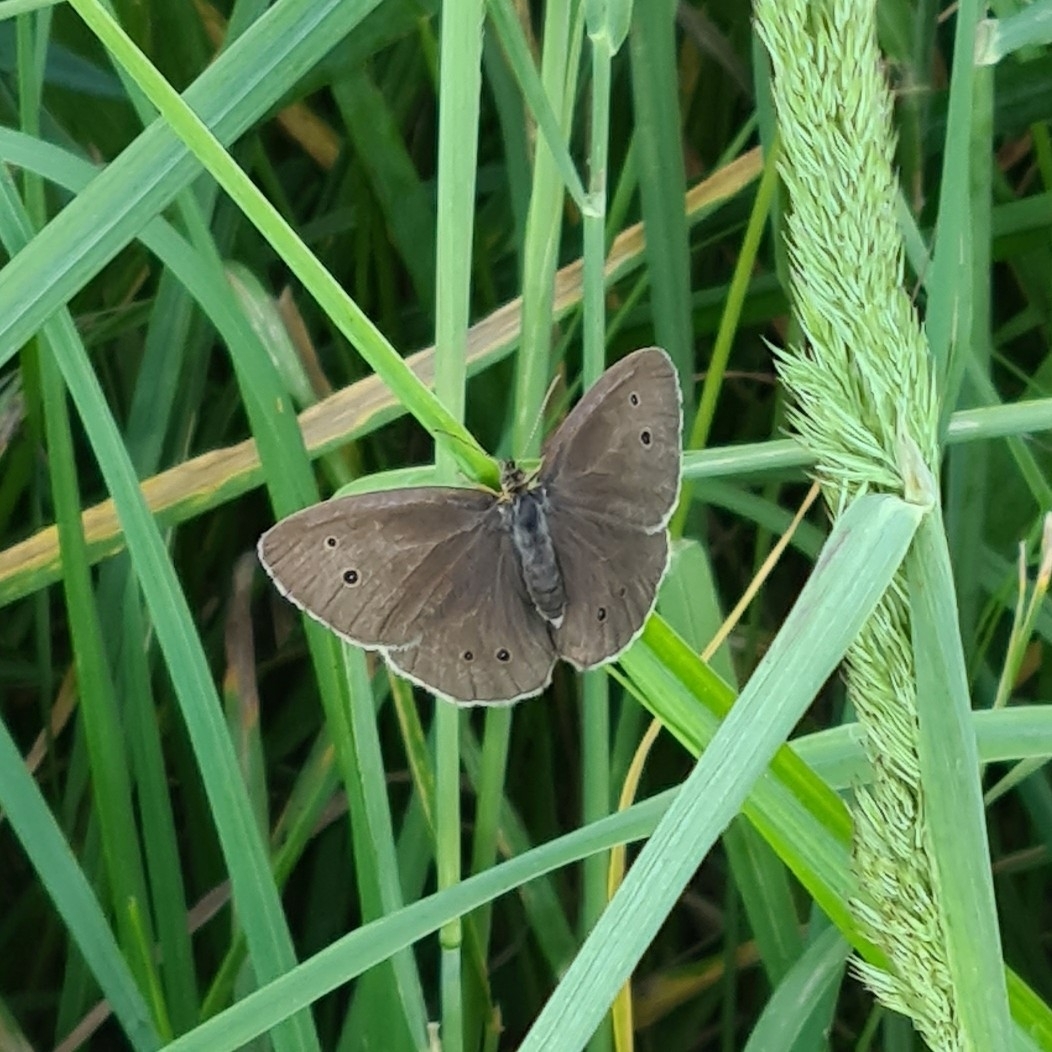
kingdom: Animalia
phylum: Arthropoda
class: Insecta
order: Lepidoptera
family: Nymphalidae
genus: Aphantopus
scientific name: Aphantopus hyperantus
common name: Ringlet
